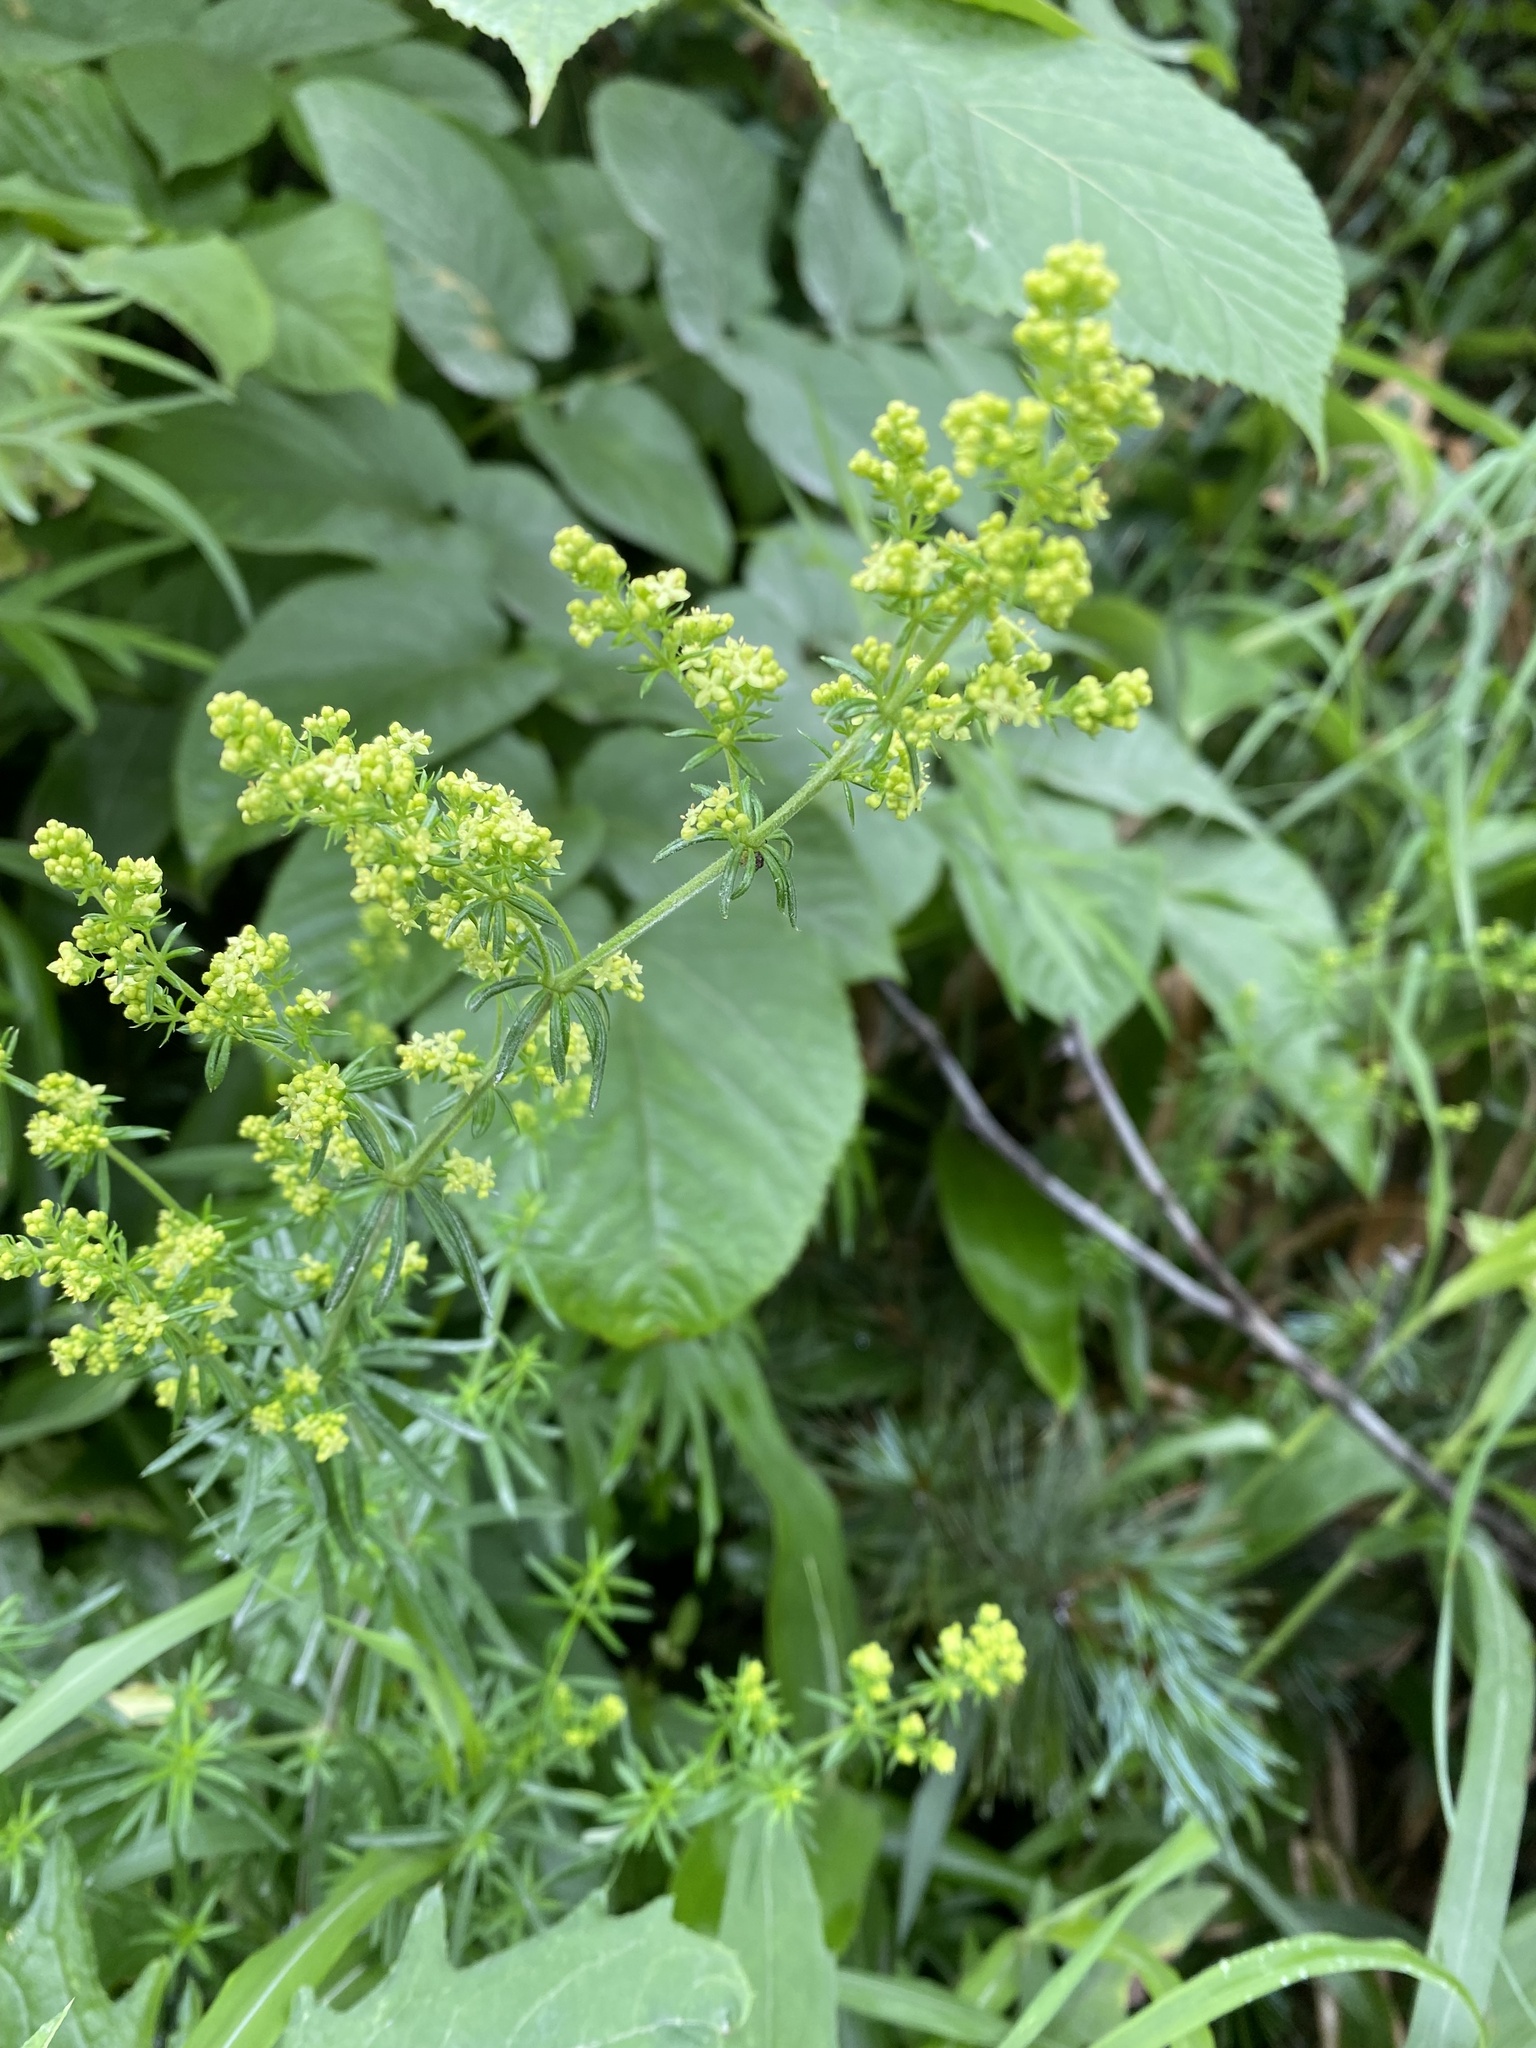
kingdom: Plantae
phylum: Tracheophyta
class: Magnoliopsida
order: Gentianales
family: Rubiaceae
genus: Galium
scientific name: Galium verum
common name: Lady's bedstraw
